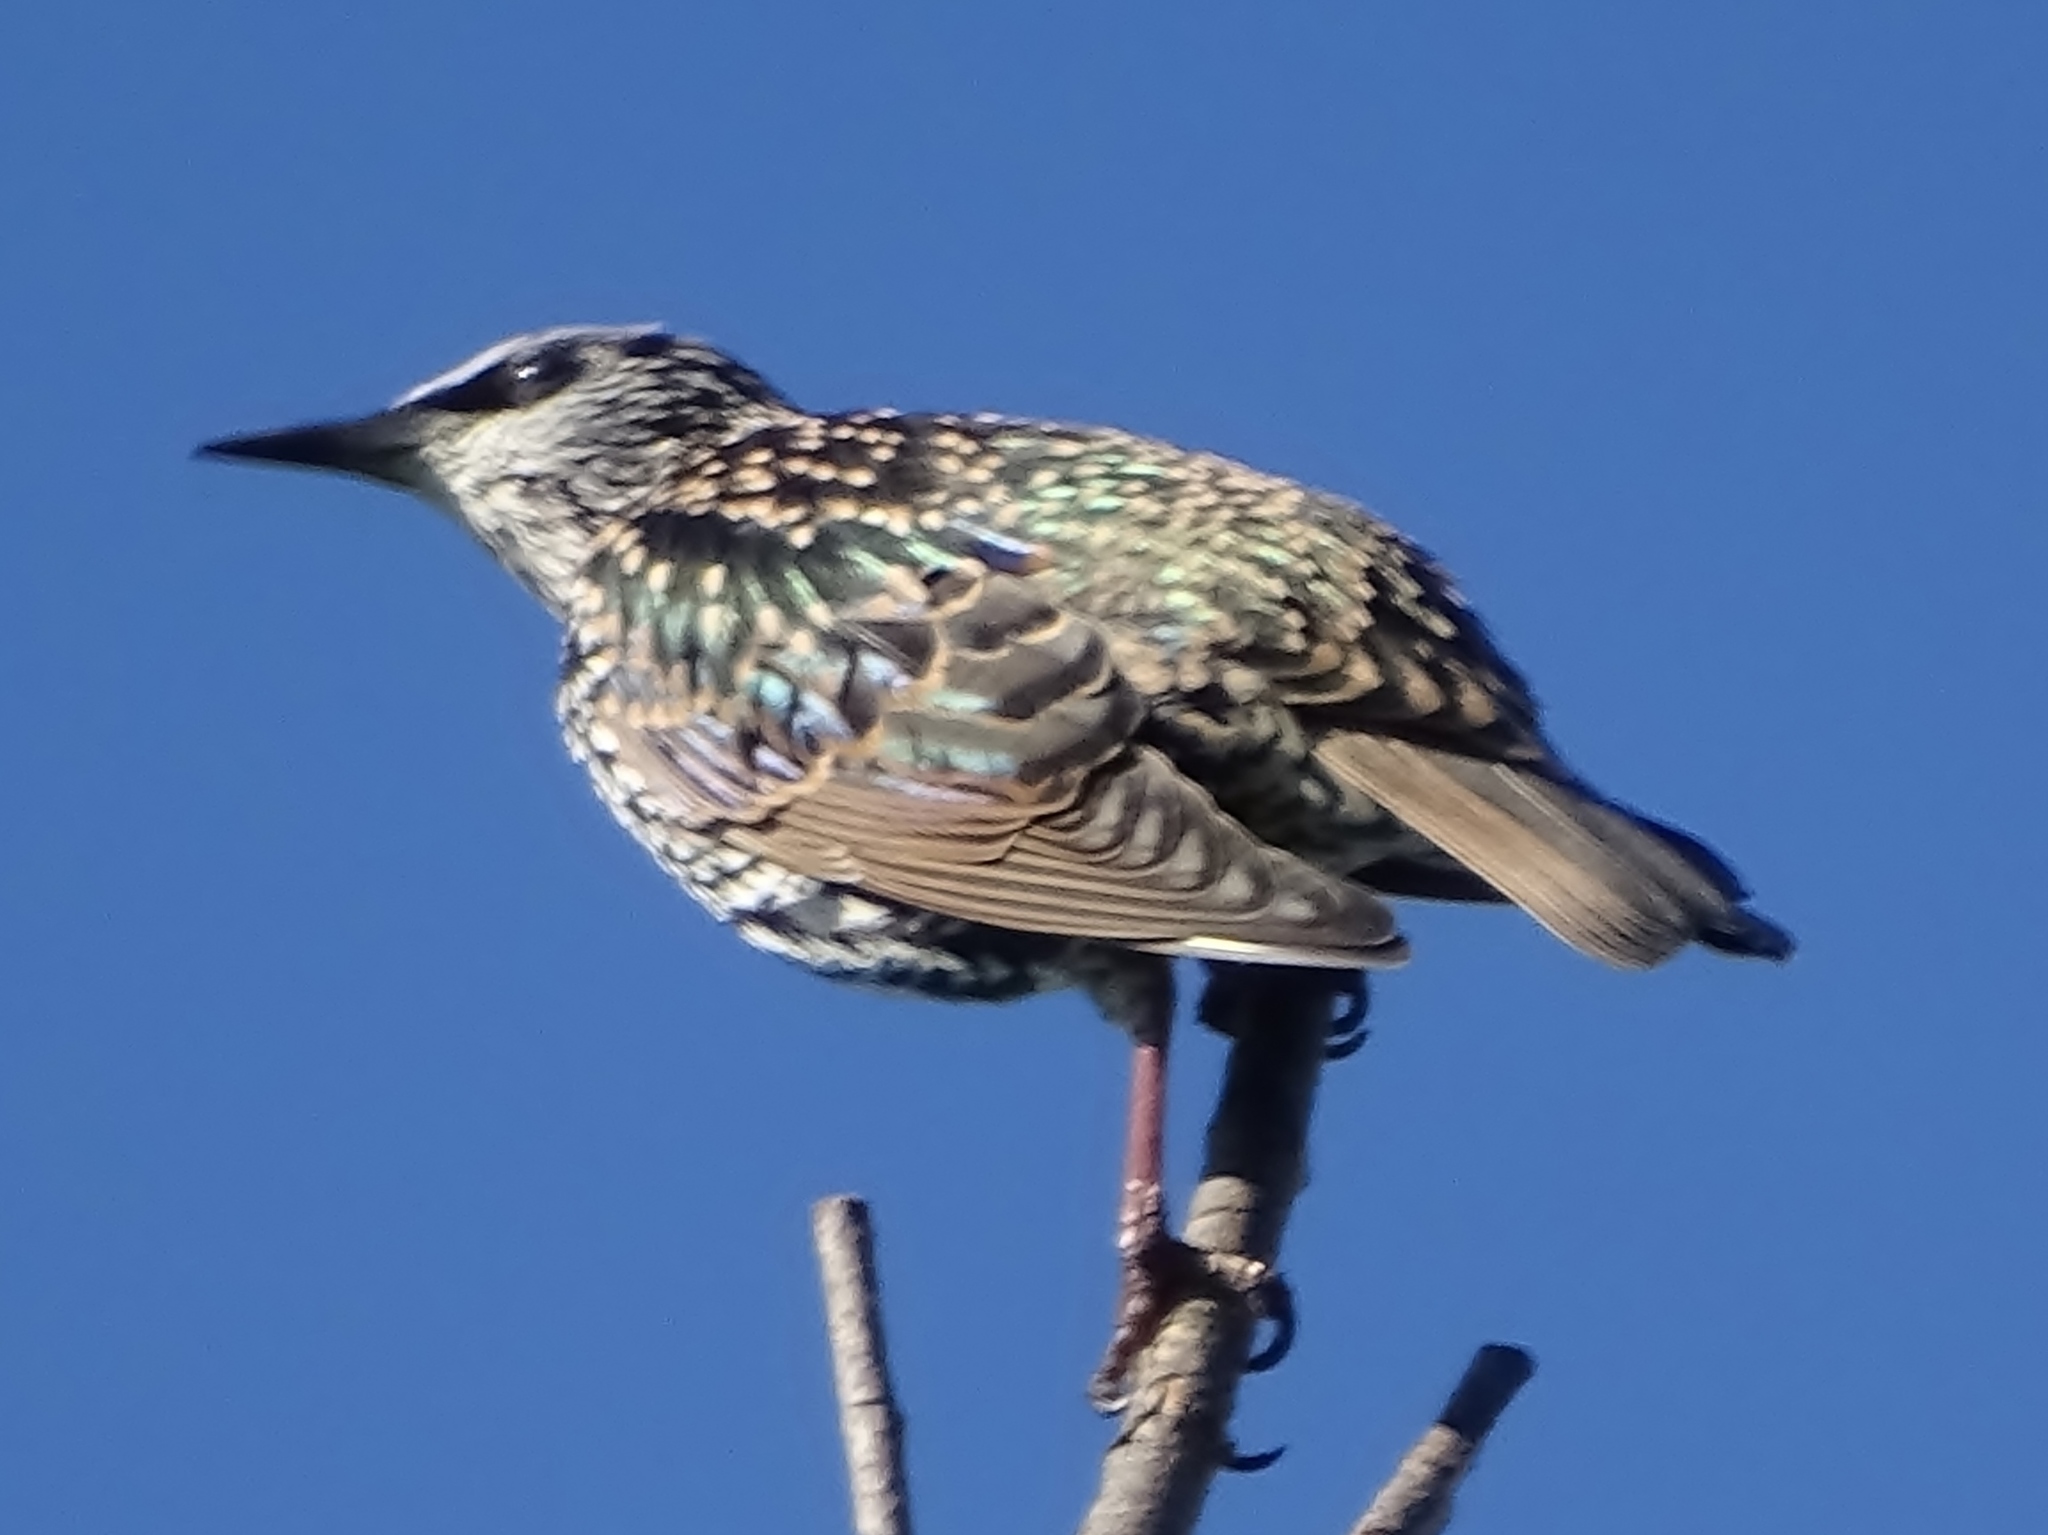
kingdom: Animalia
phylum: Chordata
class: Aves
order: Passeriformes
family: Sturnidae
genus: Sturnus
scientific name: Sturnus vulgaris
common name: Common starling
